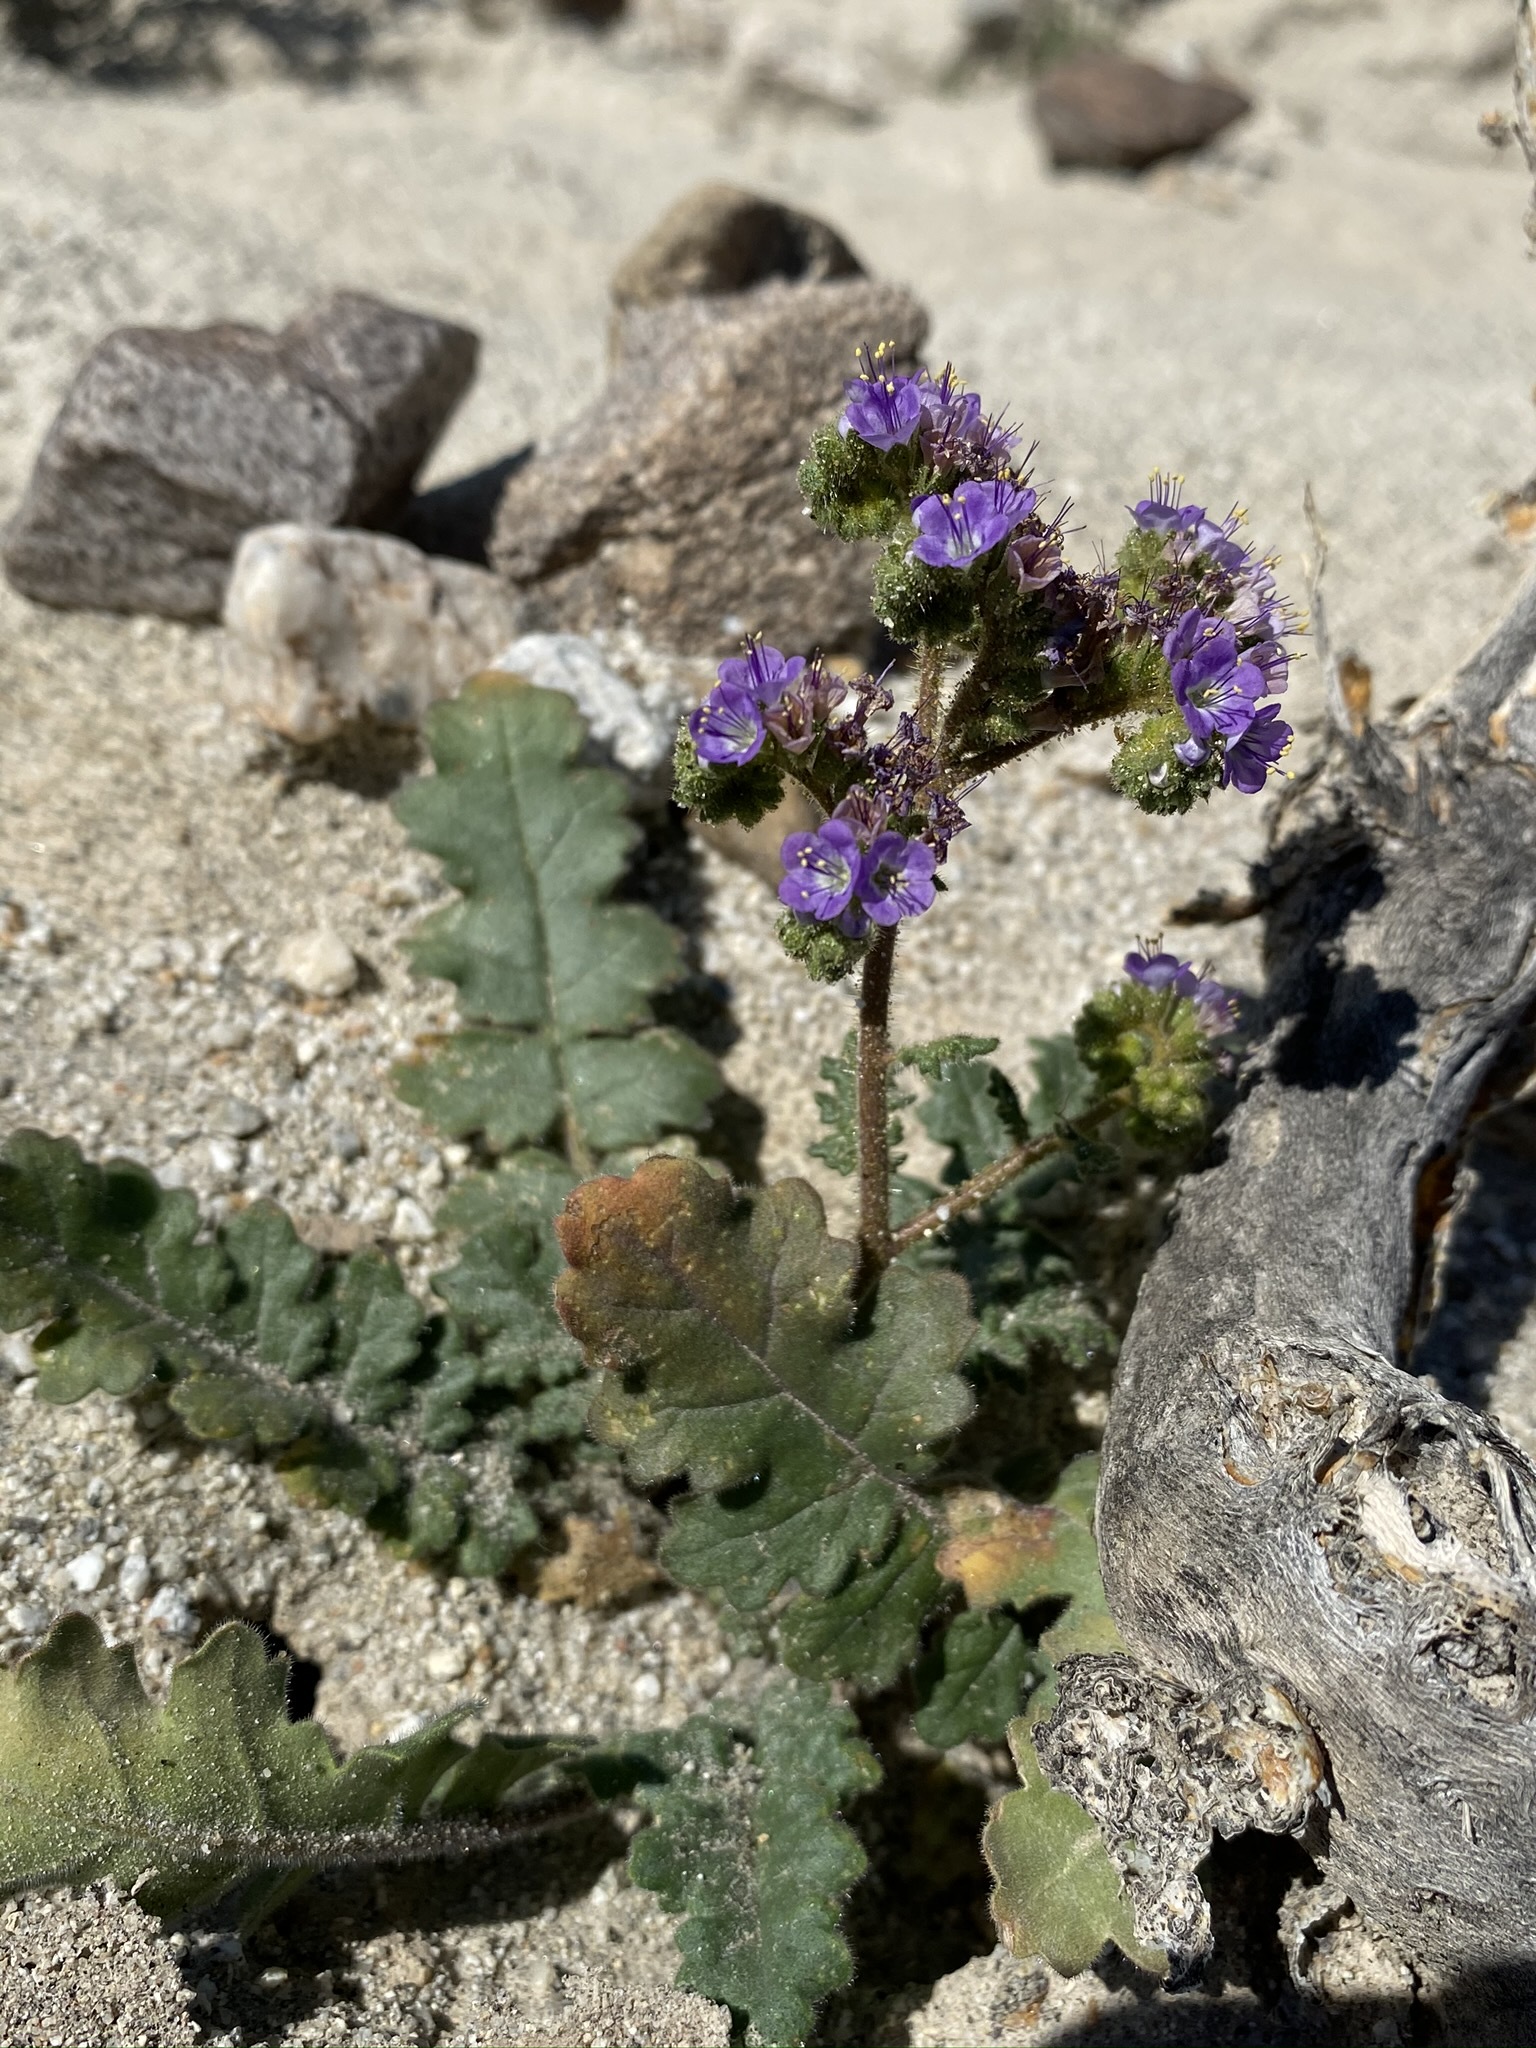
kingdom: Plantae
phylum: Tracheophyta
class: Magnoliopsida
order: Boraginales
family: Hydrophyllaceae
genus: Phacelia
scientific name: Phacelia minutiflora
